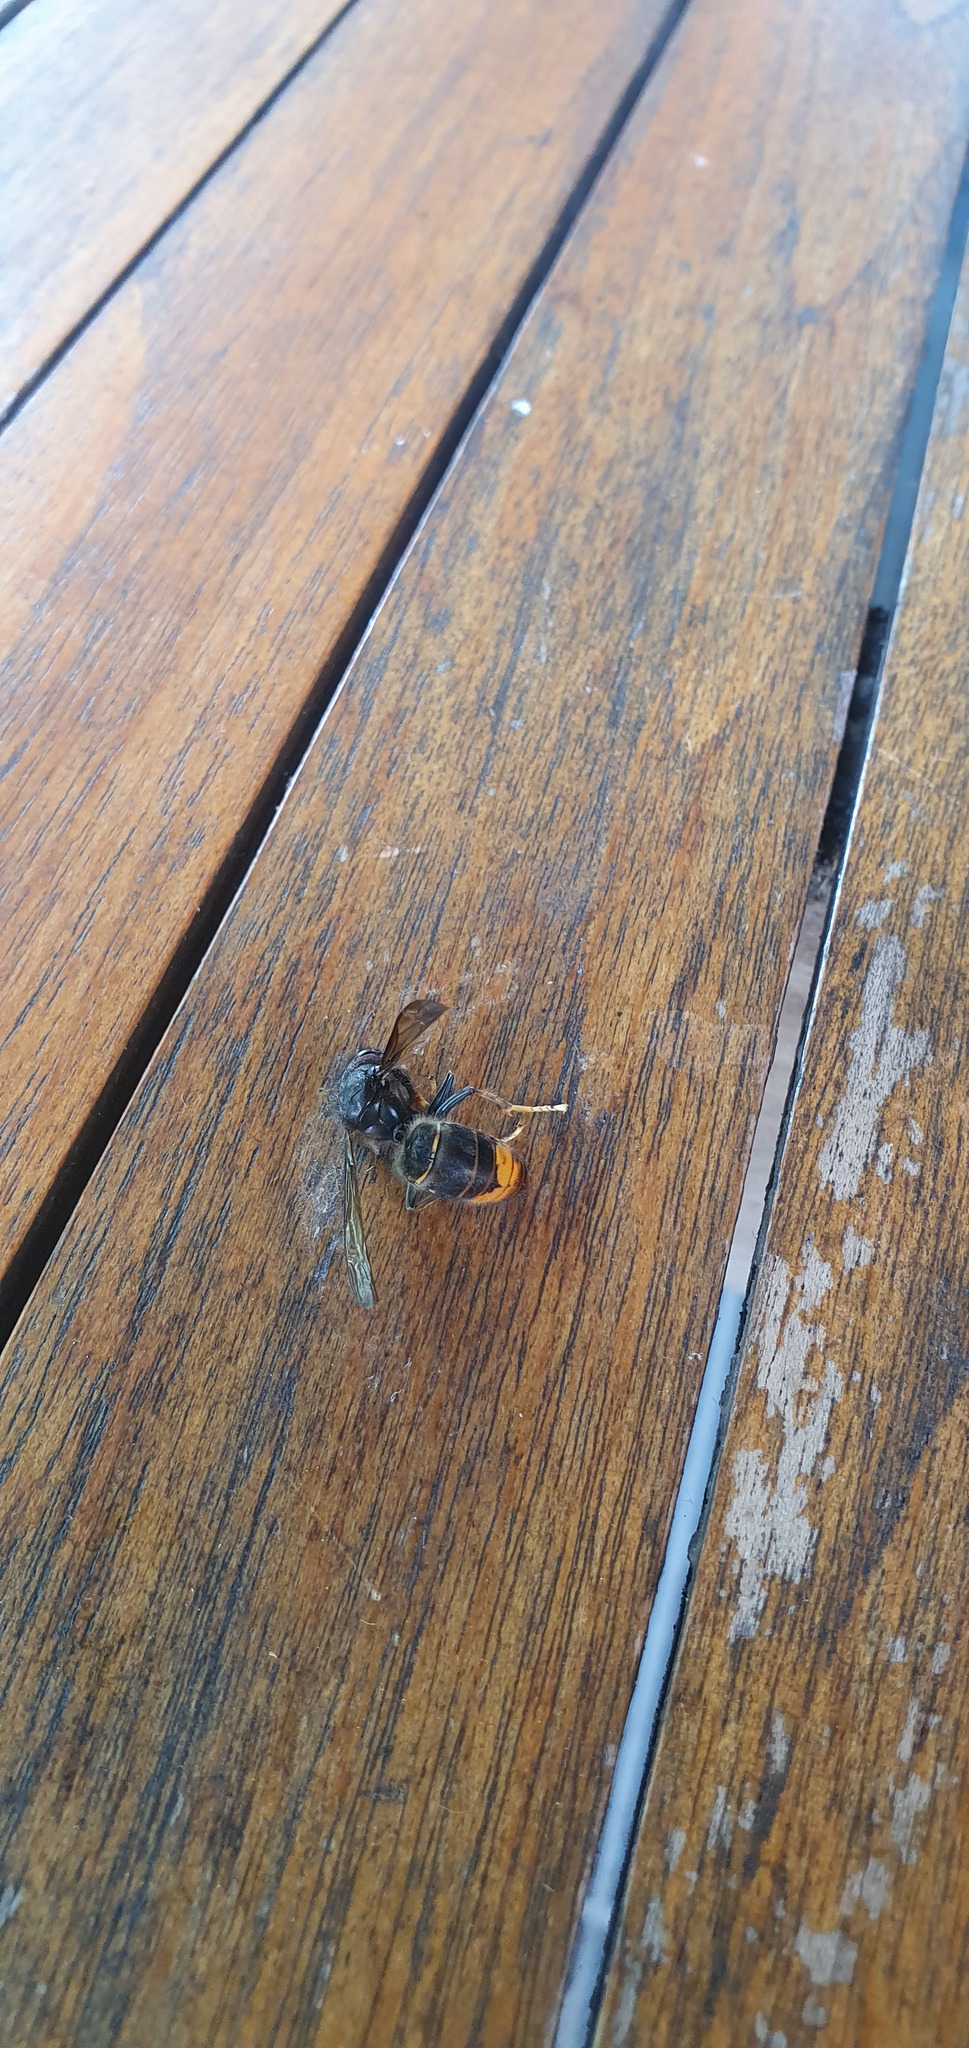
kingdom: Animalia
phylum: Arthropoda
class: Insecta
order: Hymenoptera
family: Vespidae
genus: Vespa
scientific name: Vespa velutina
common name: Asian hornet
